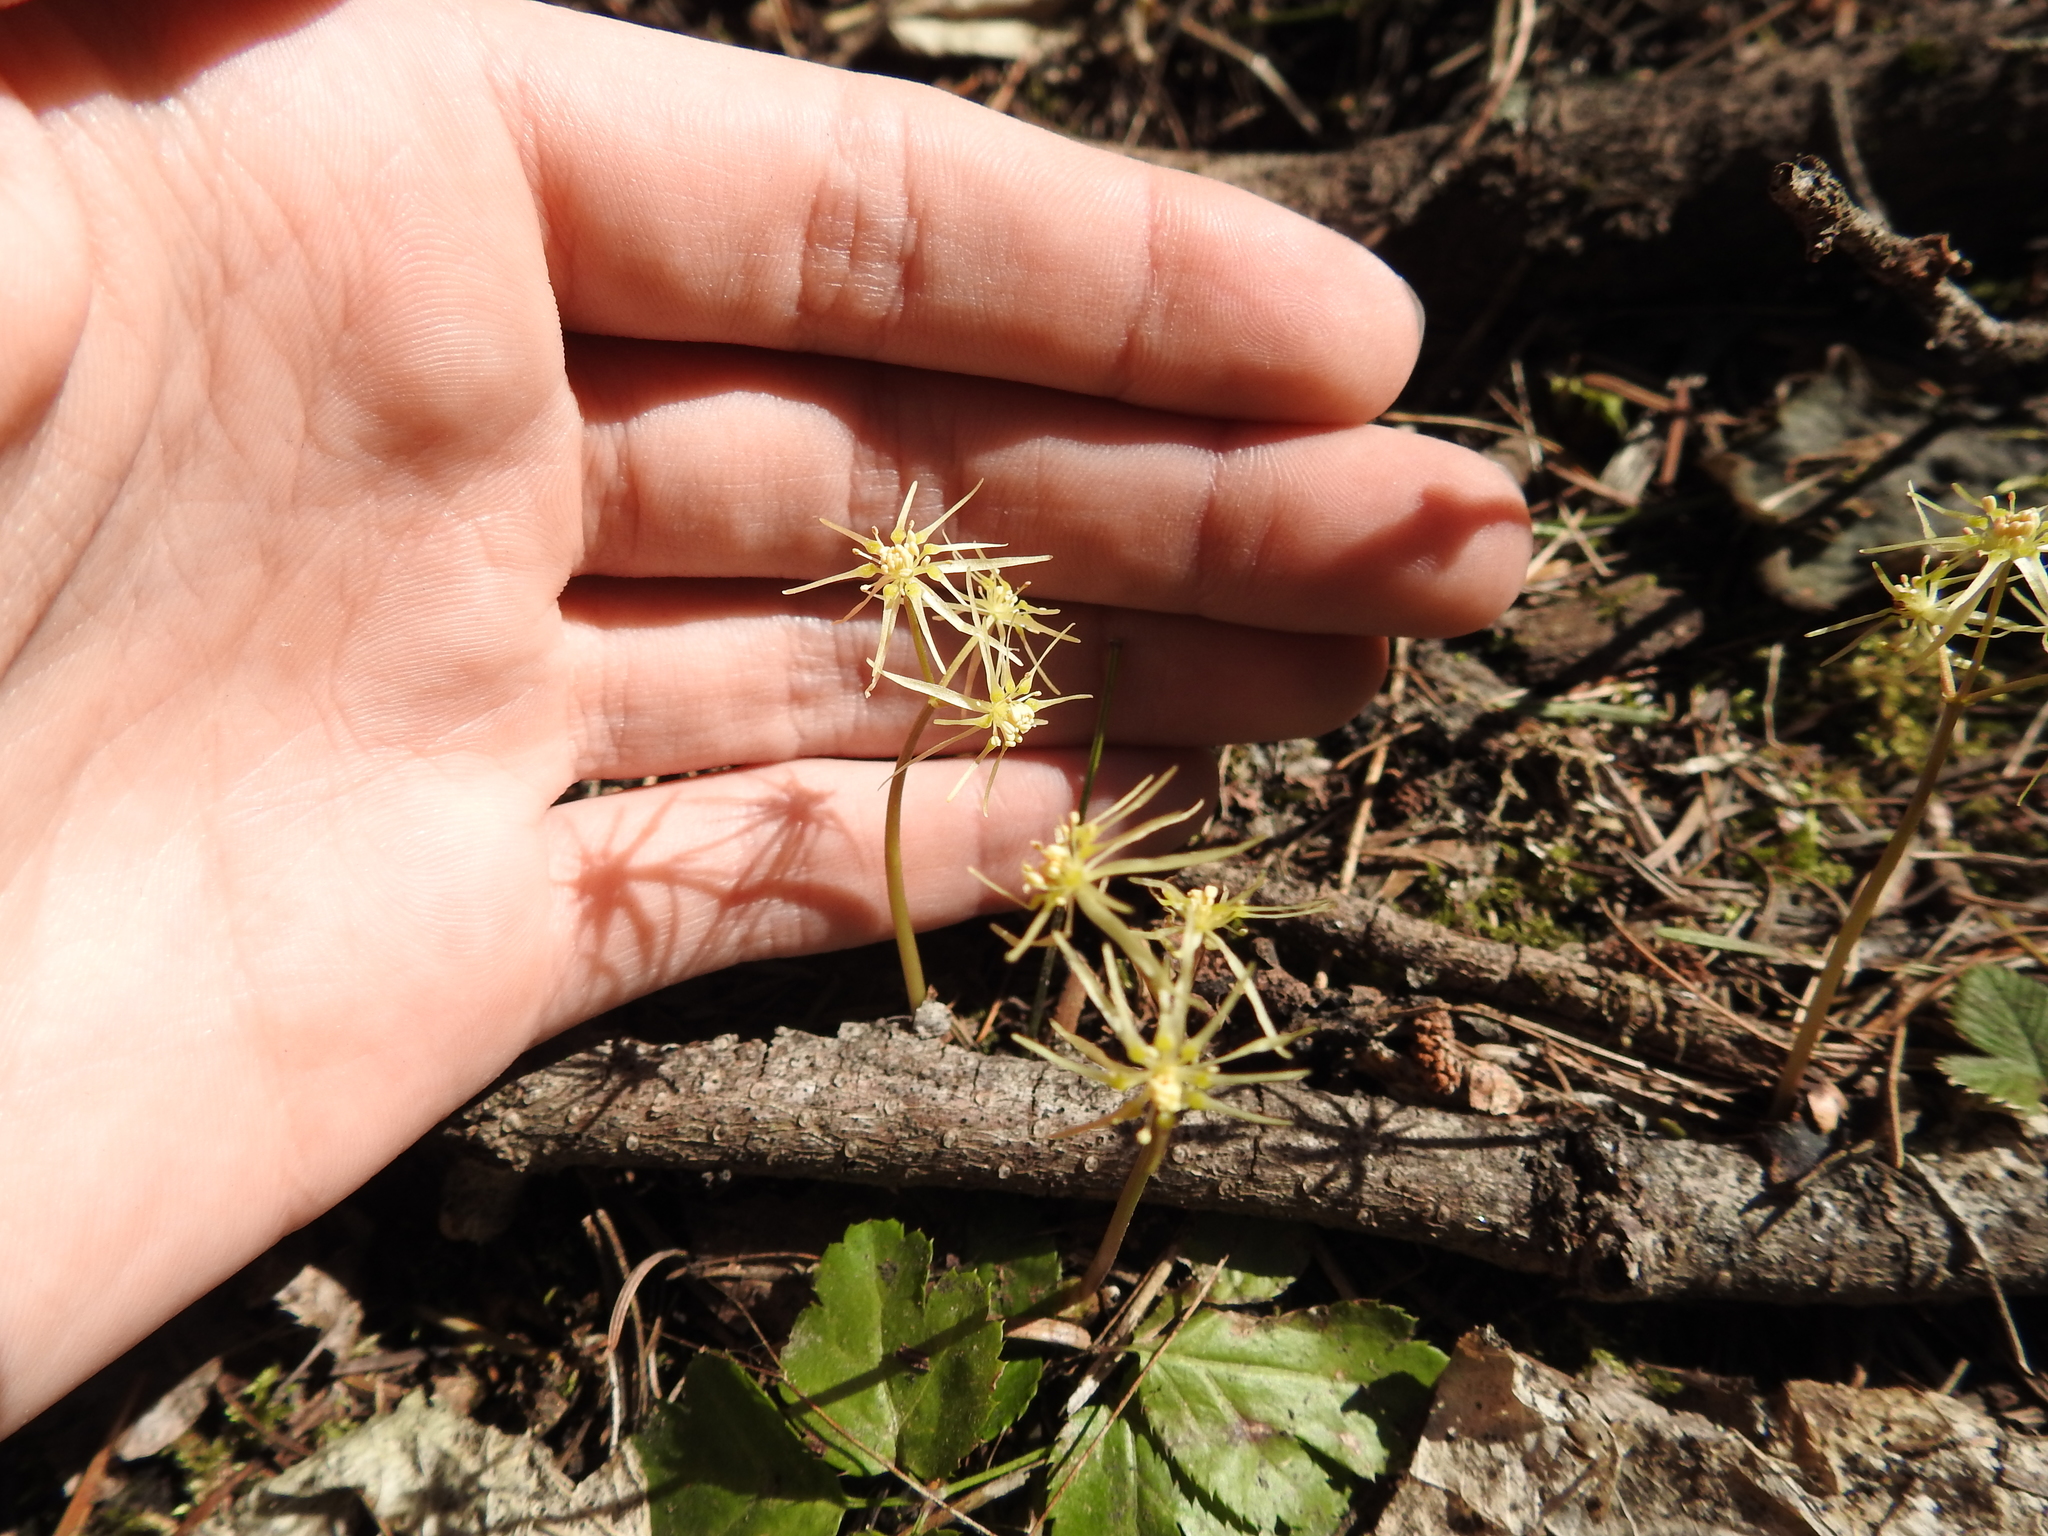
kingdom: Plantae
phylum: Tracheophyta
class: Magnoliopsida
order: Ranunculales
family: Ranunculaceae
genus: Coptis
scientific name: Coptis occidentalis
